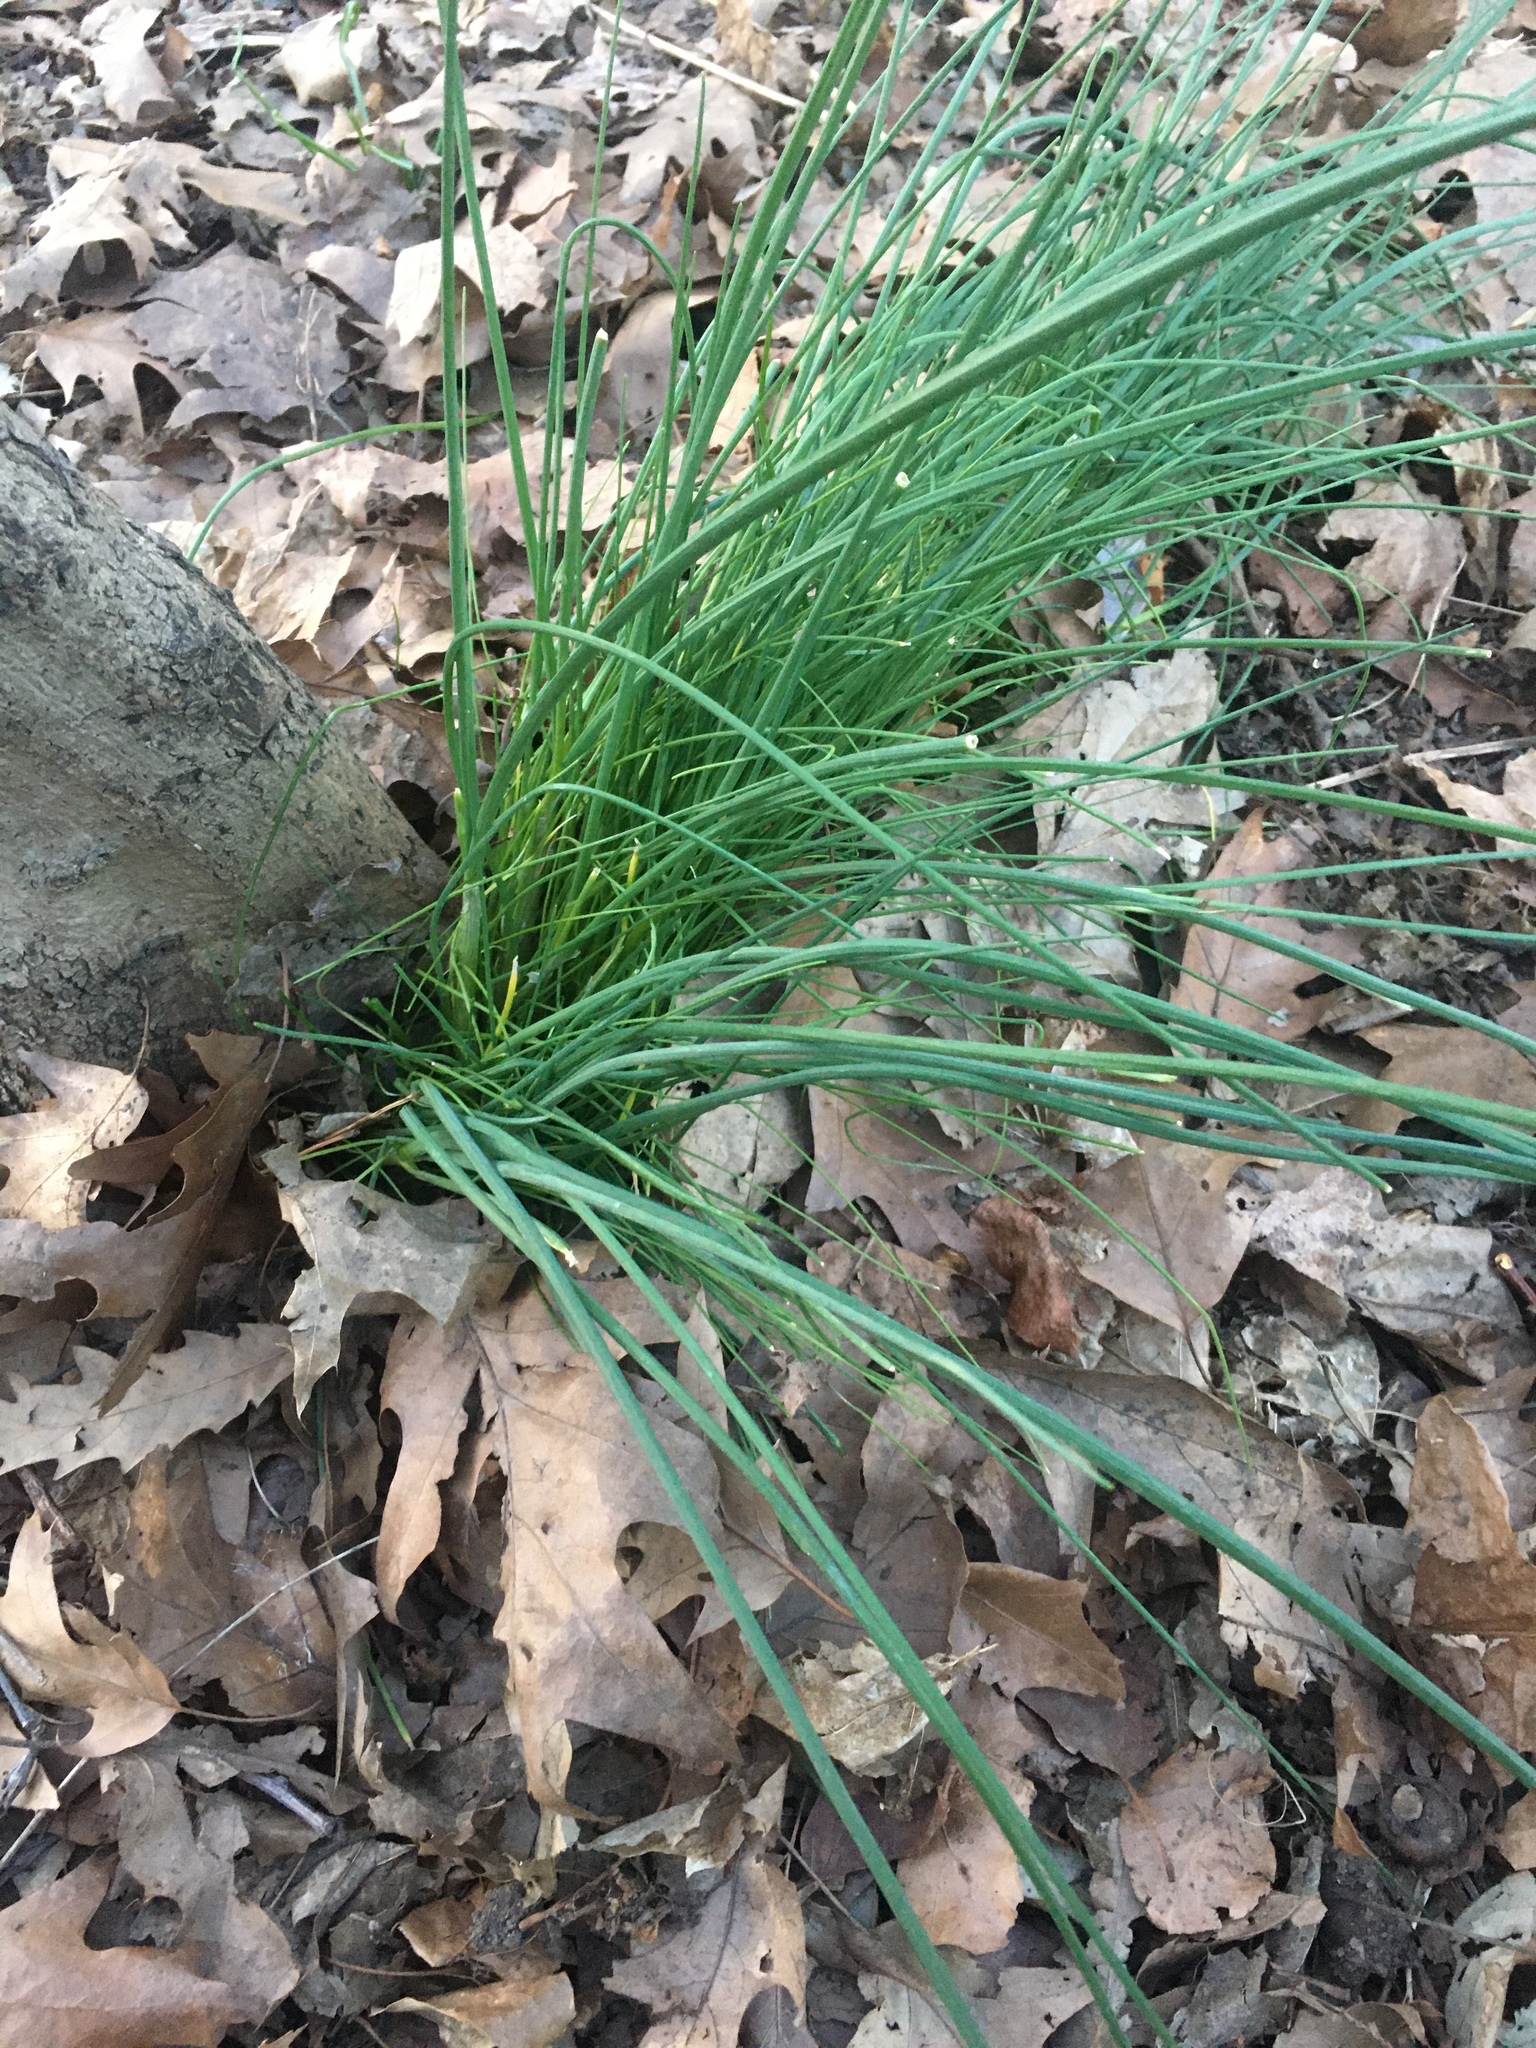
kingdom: Plantae
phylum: Tracheophyta
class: Liliopsida
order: Asparagales
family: Amaryllidaceae
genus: Allium
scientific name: Allium vineale
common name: Crow garlic
